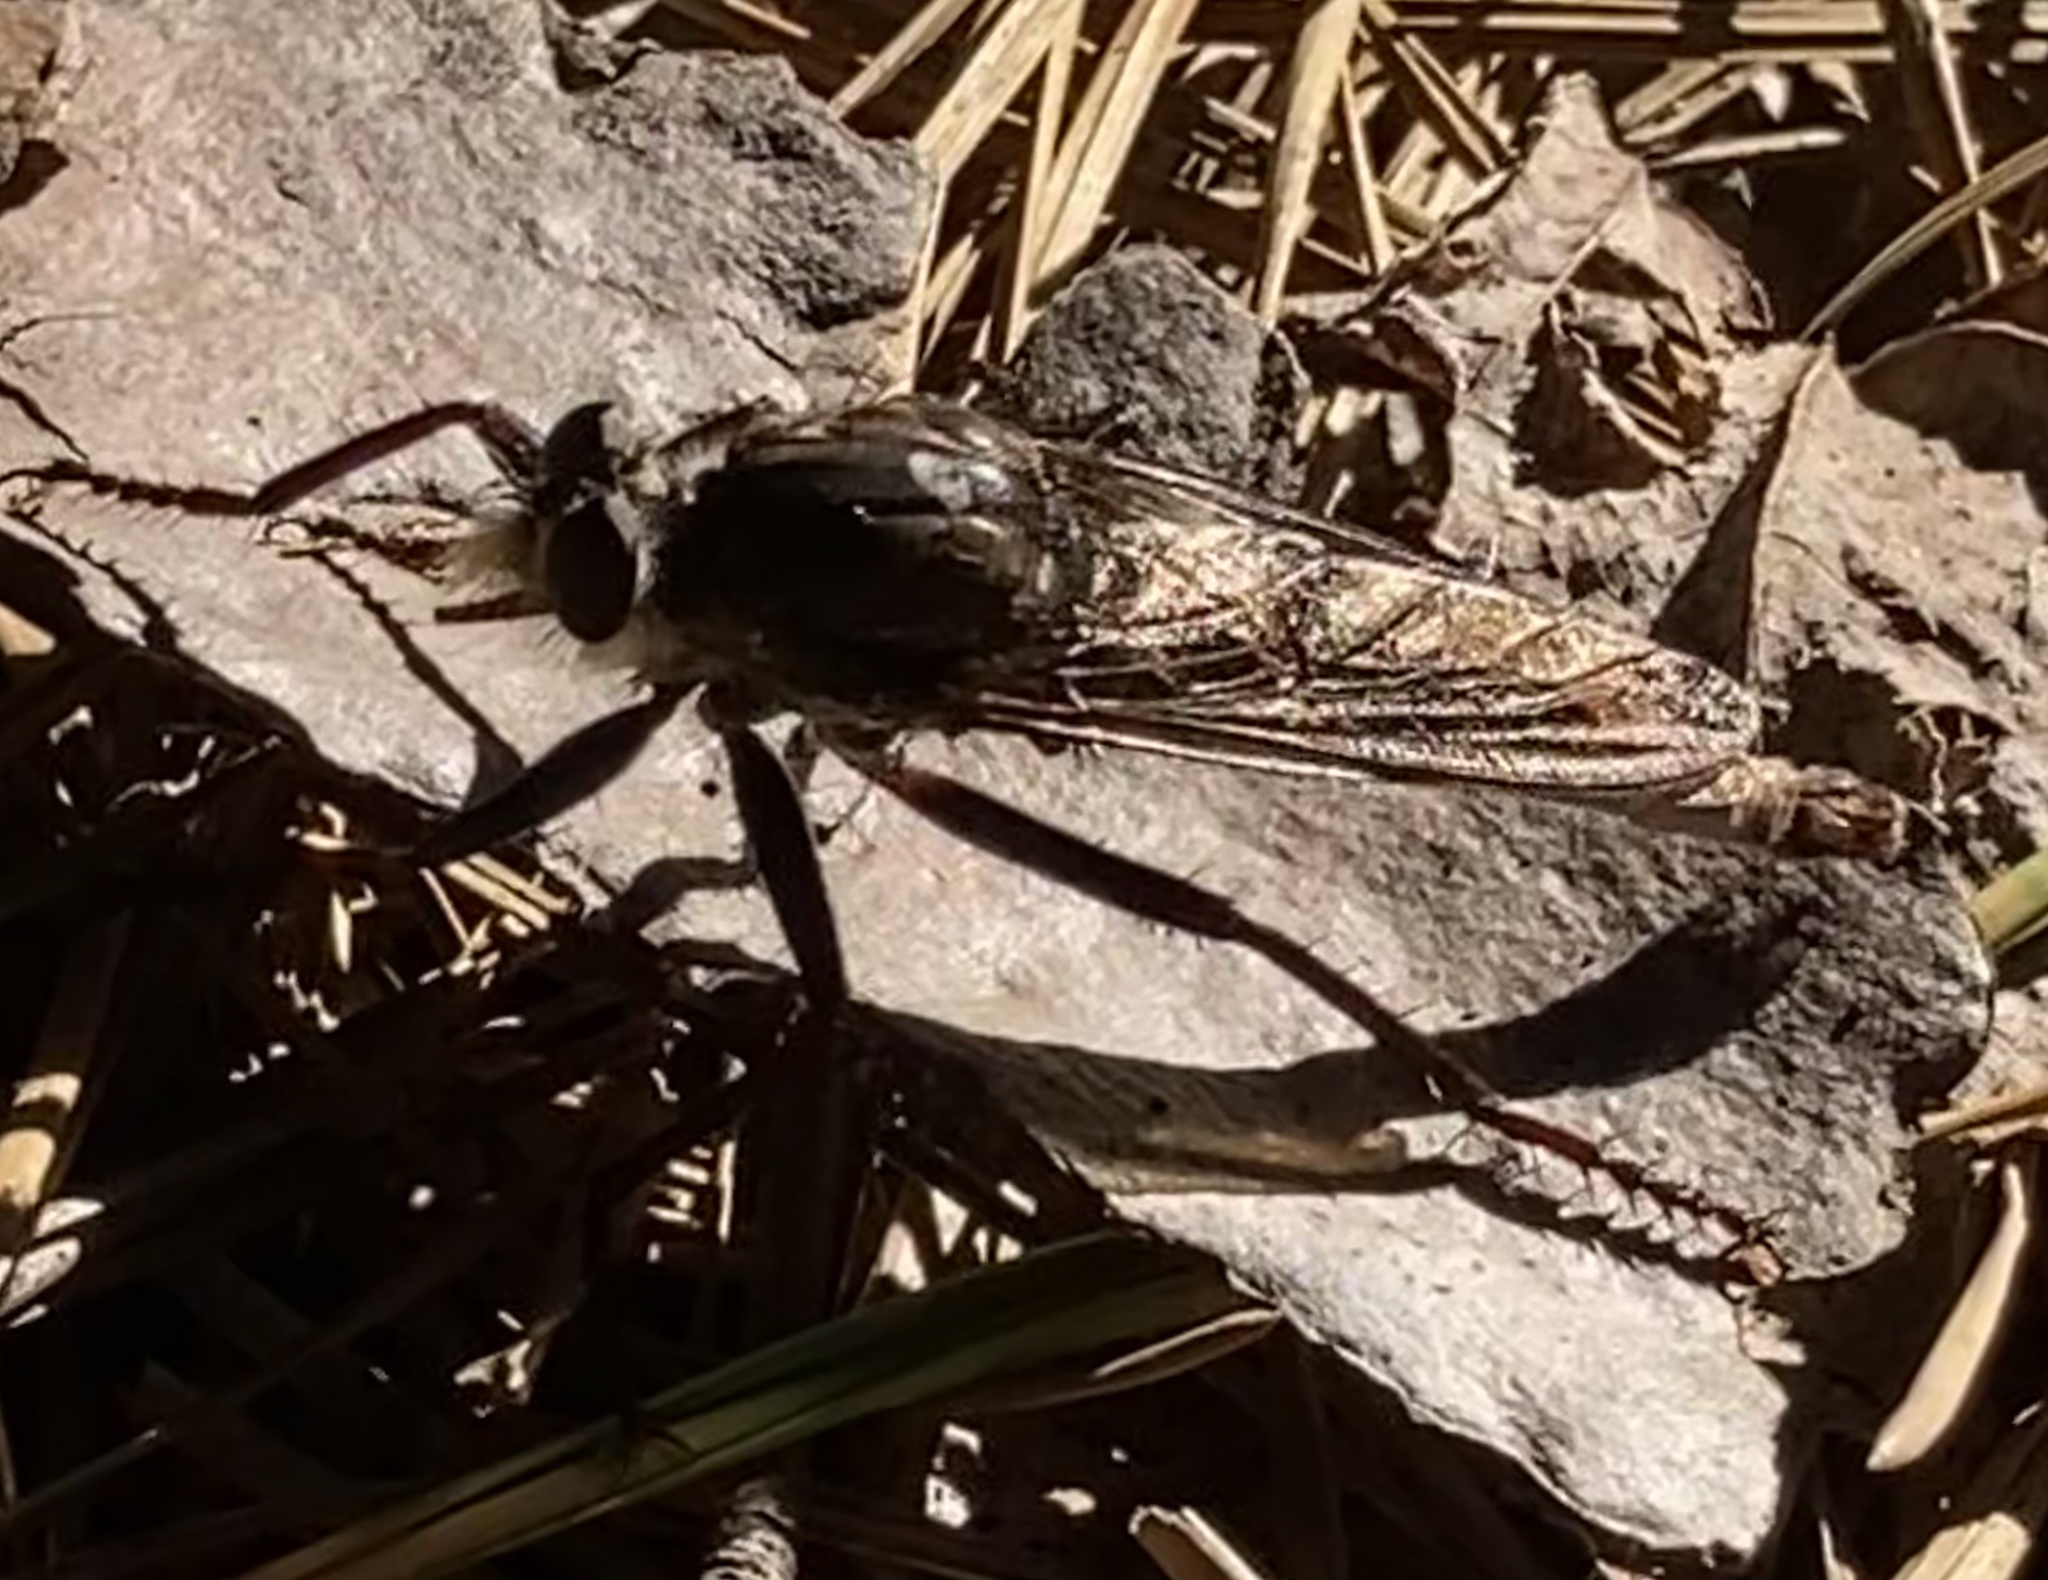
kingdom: Animalia
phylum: Arthropoda
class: Insecta
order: Diptera
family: Asilidae
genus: Machimus
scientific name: Machimus sadyates
